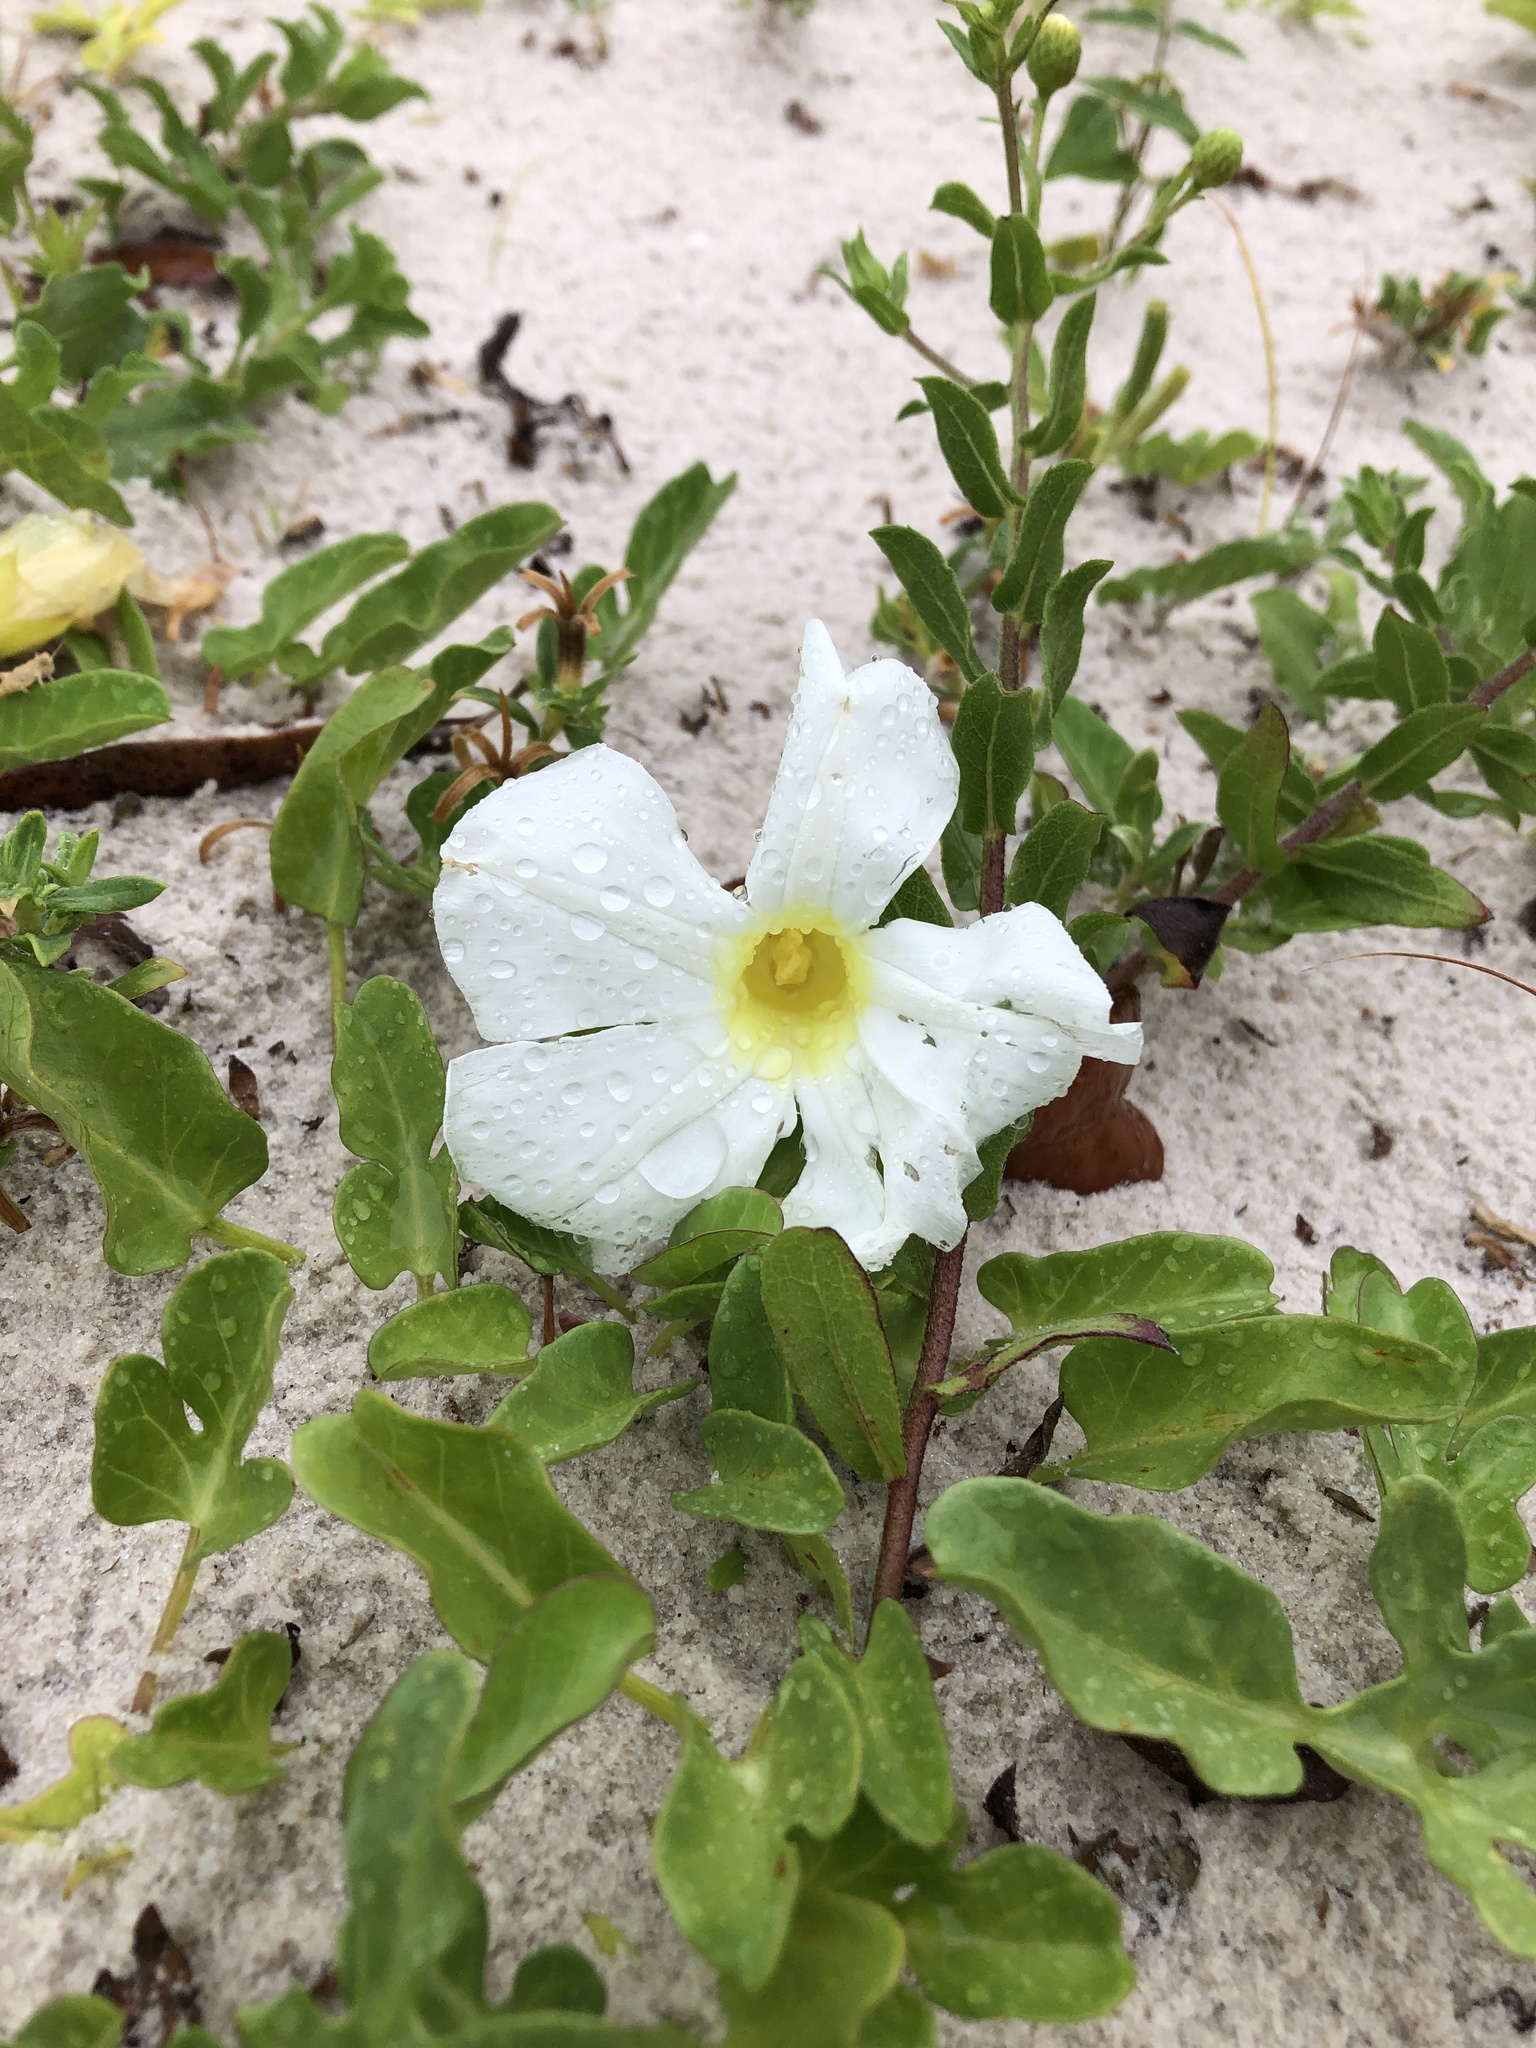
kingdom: Plantae
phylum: Tracheophyta
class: Magnoliopsida
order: Solanales
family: Convolvulaceae
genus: Ipomoea
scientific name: Ipomoea imperati
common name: Fiddle-leaf morning-glory
